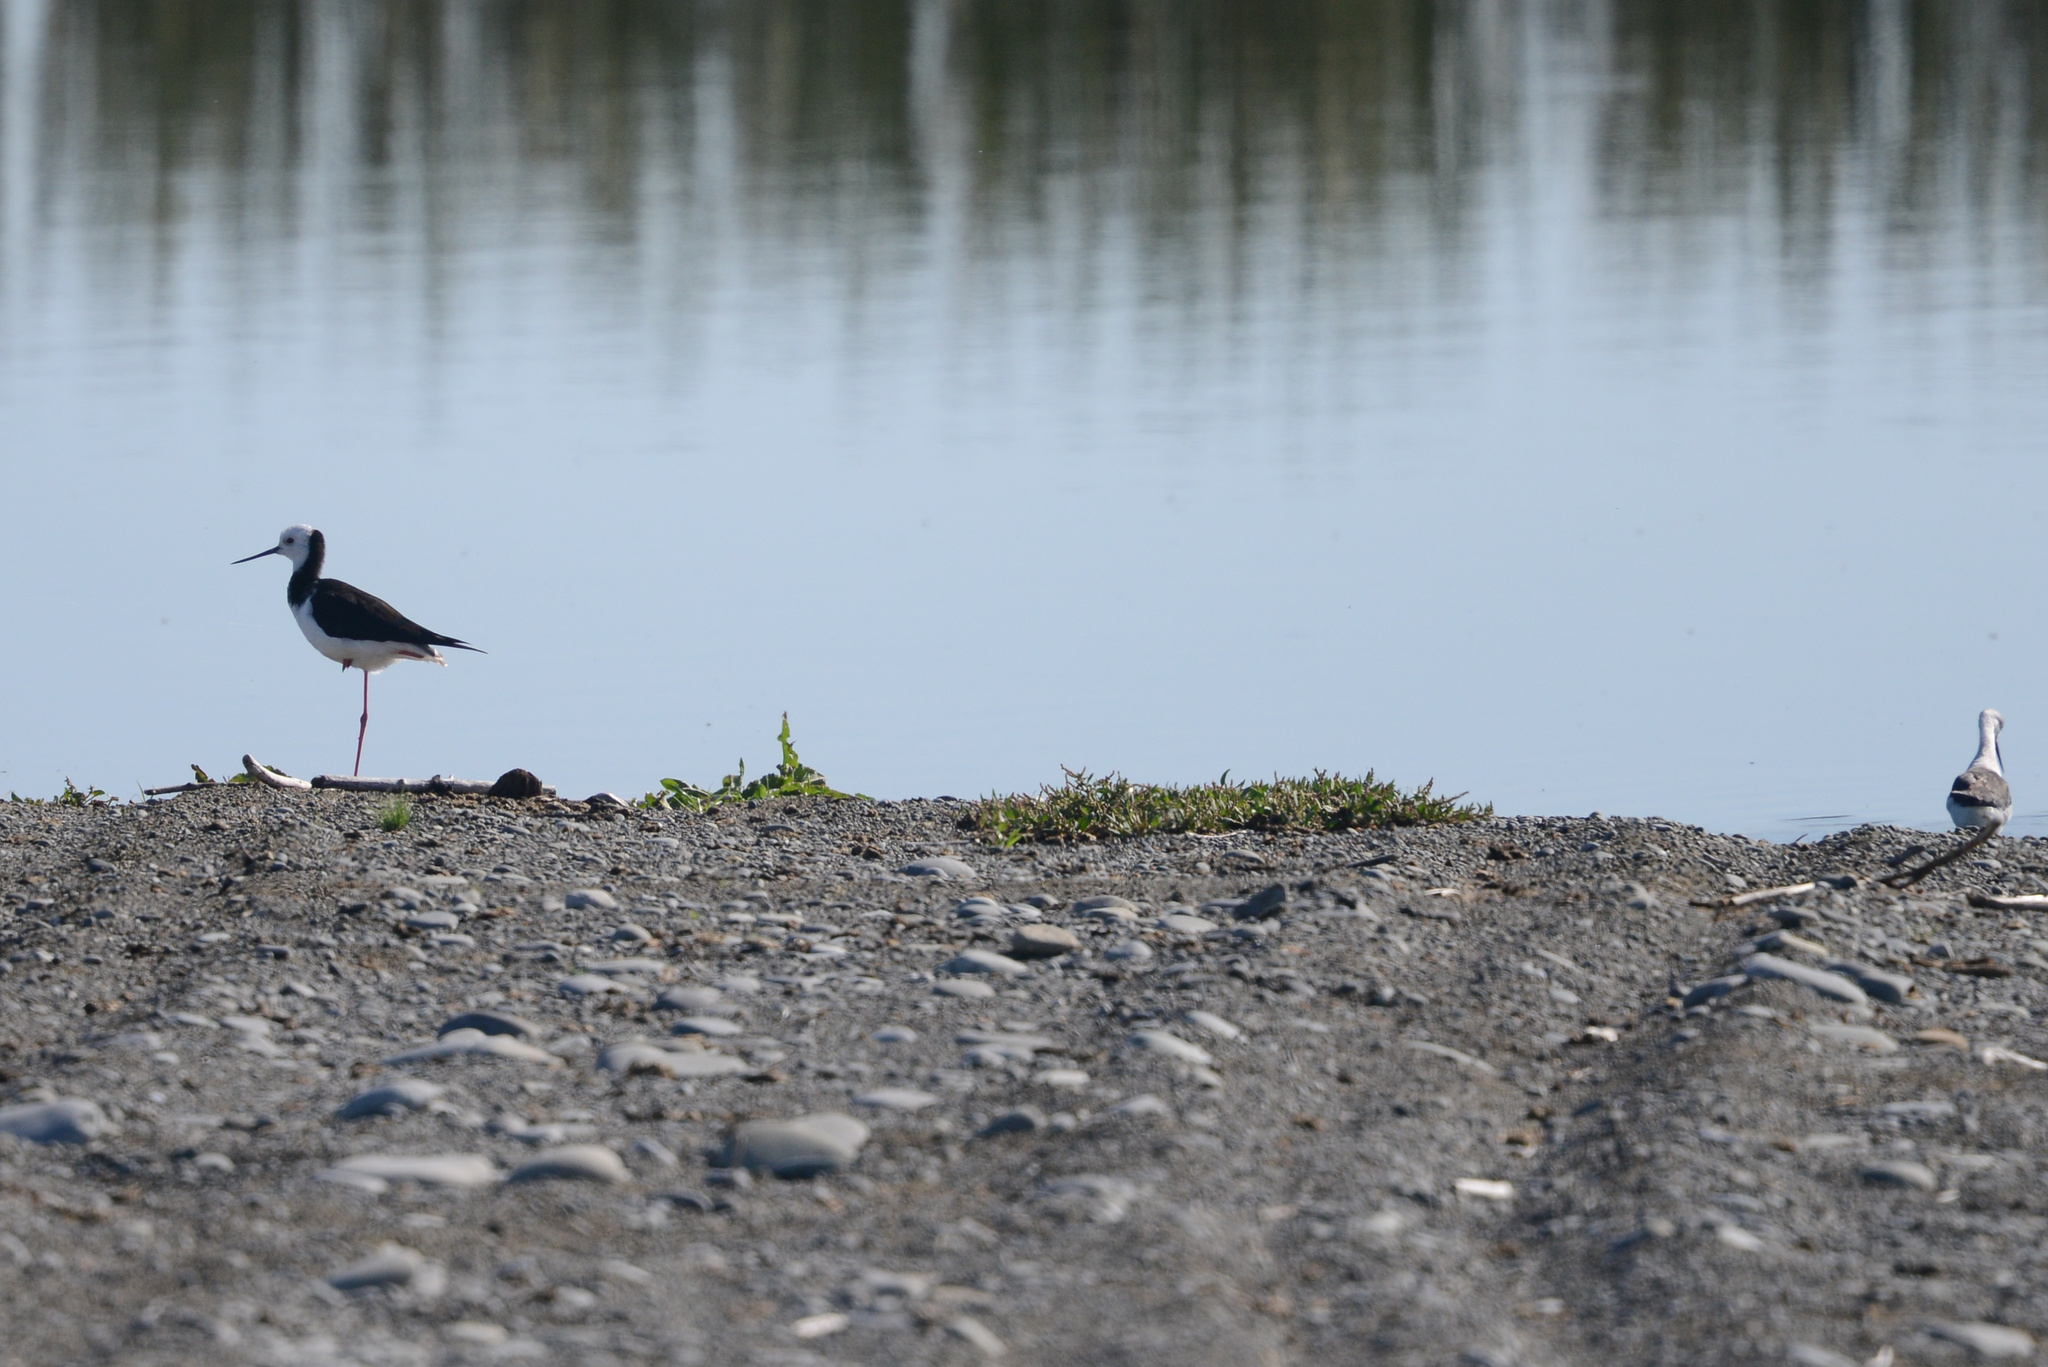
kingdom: Animalia
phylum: Chordata
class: Aves
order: Charadriiformes
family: Recurvirostridae
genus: Himantopus
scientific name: Himantopus leucocephalus
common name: White-headed stilt
